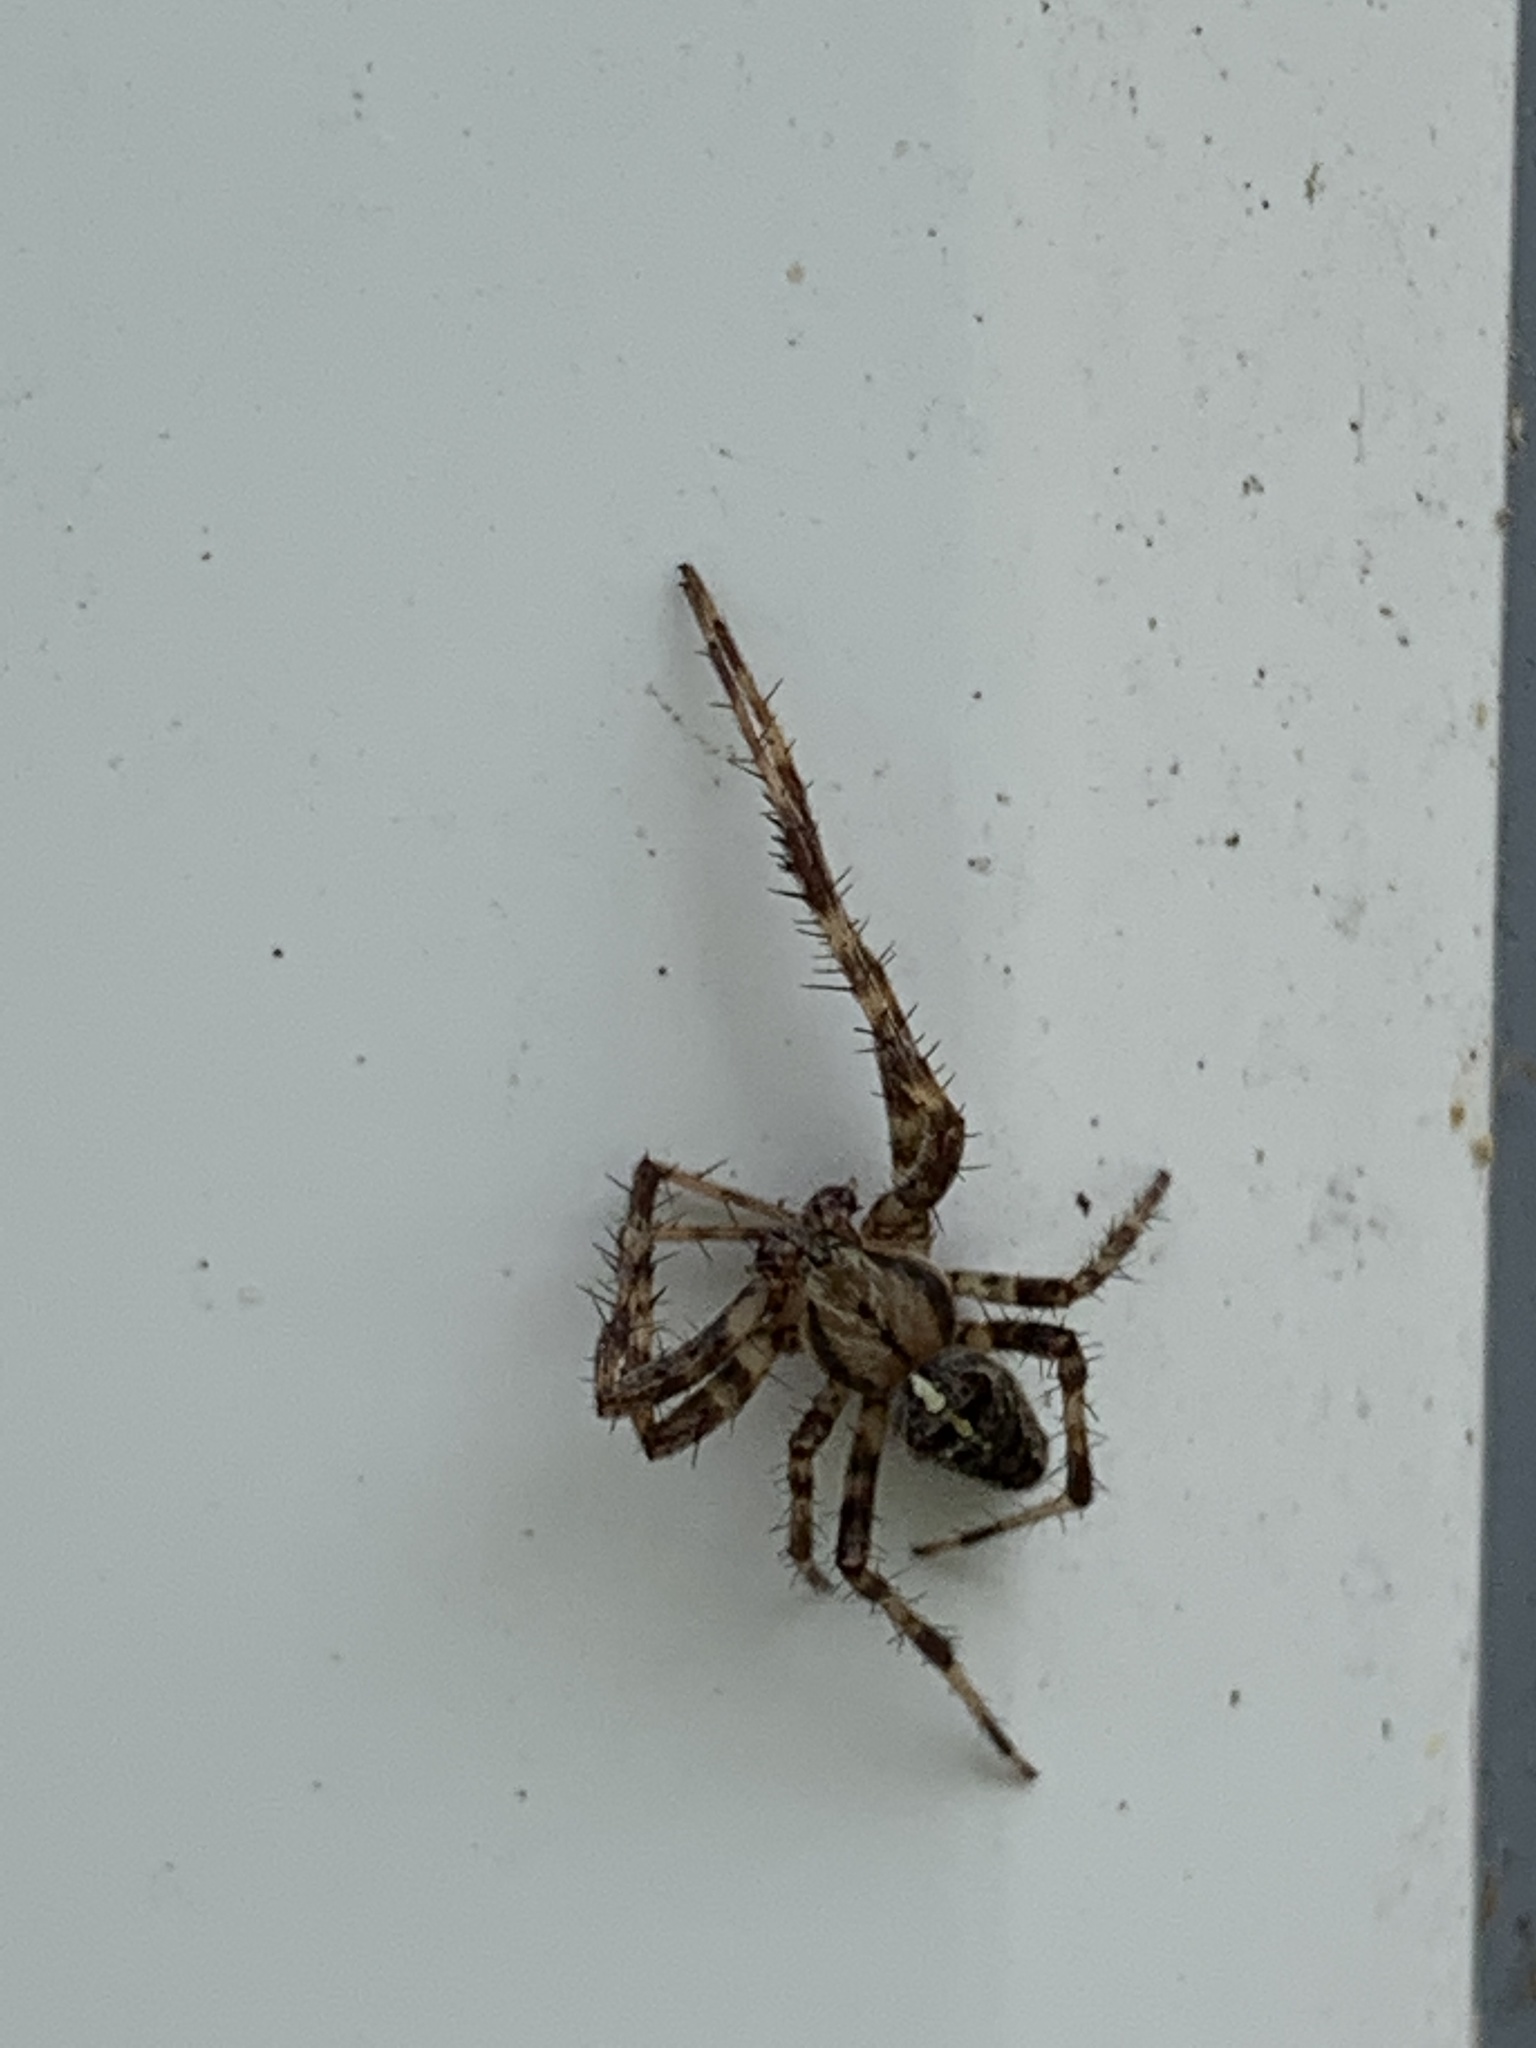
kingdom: Animalia
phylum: Arthropoda
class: Arachnida
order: Araneae
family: Araneidae
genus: Araneus
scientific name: Araneus diadematus
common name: Cross orbweaver
